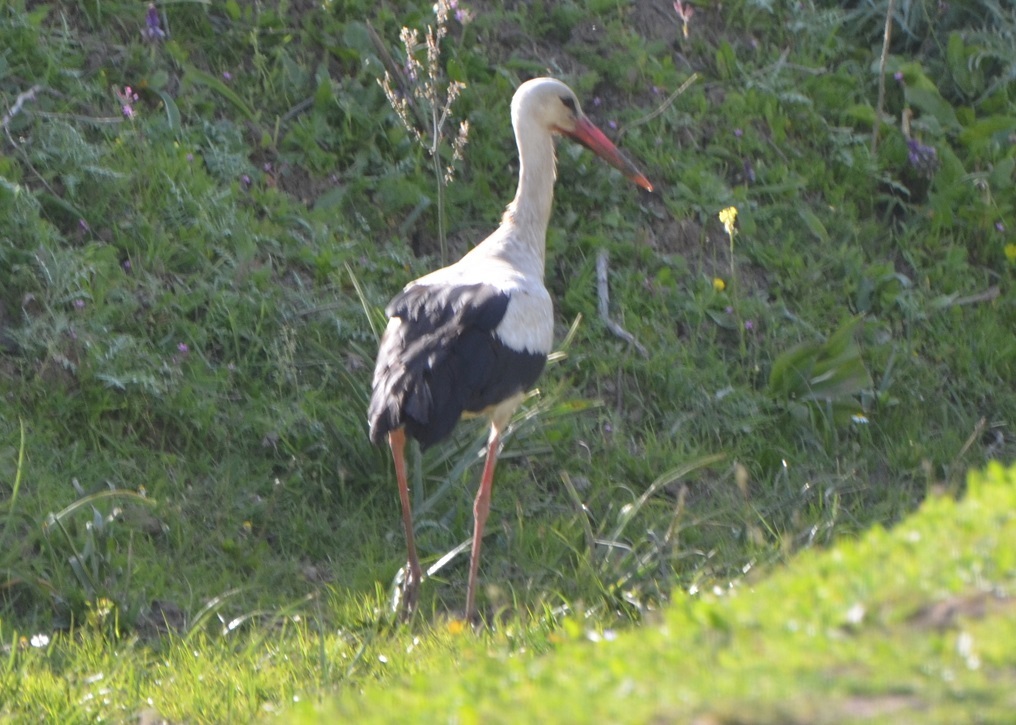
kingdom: Animalia
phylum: Chordata
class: Aves
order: Ciconiiformes
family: Ciconiidae
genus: Ciconia
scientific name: Ciconia ciconia
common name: White stork
